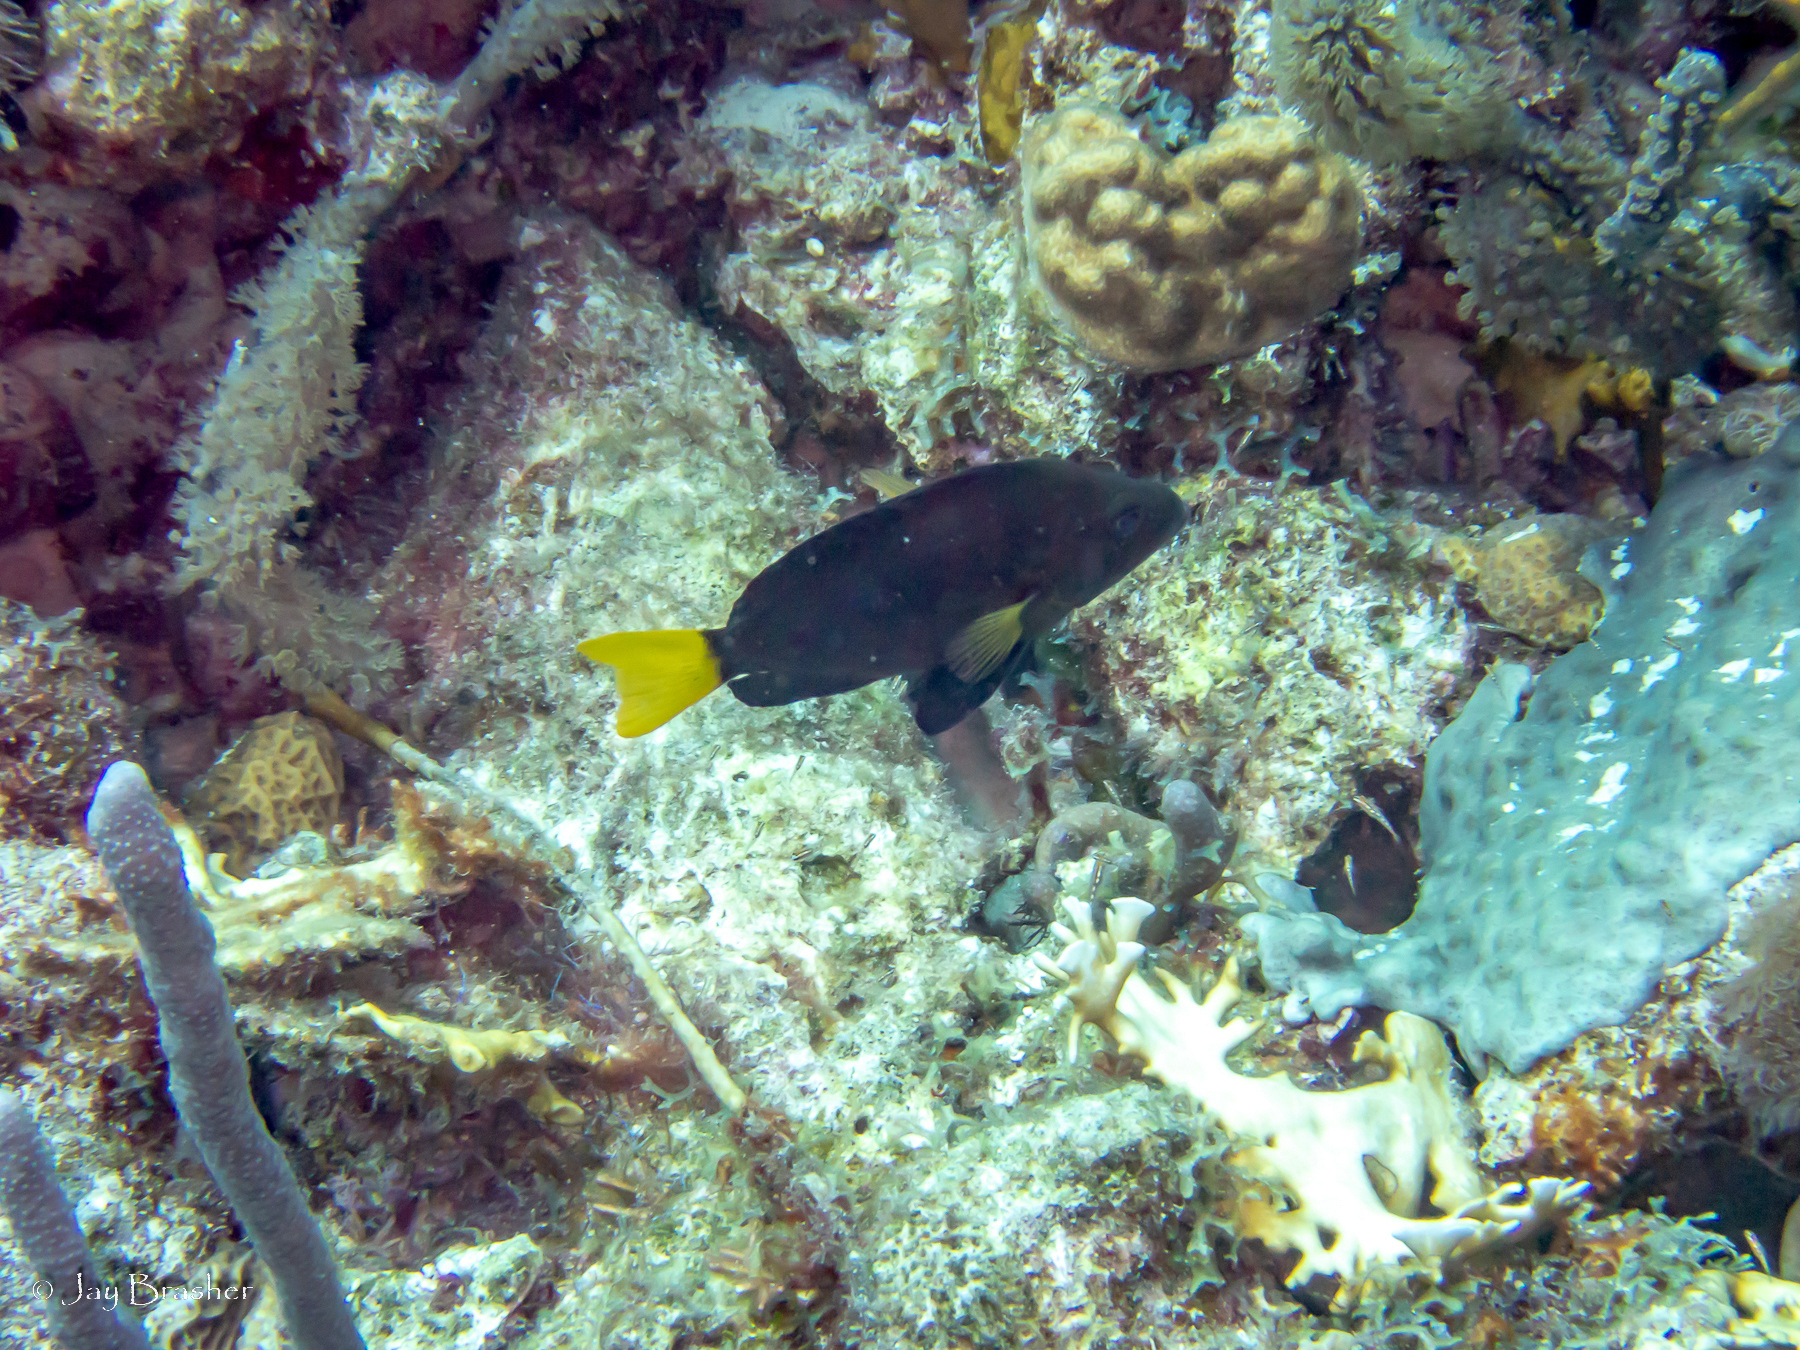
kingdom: Animalia
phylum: Cnidaria
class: Anthozoa
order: Scleractinia
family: Poritidae
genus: Porites
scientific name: Porites astreoides
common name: Mustard hill coral
